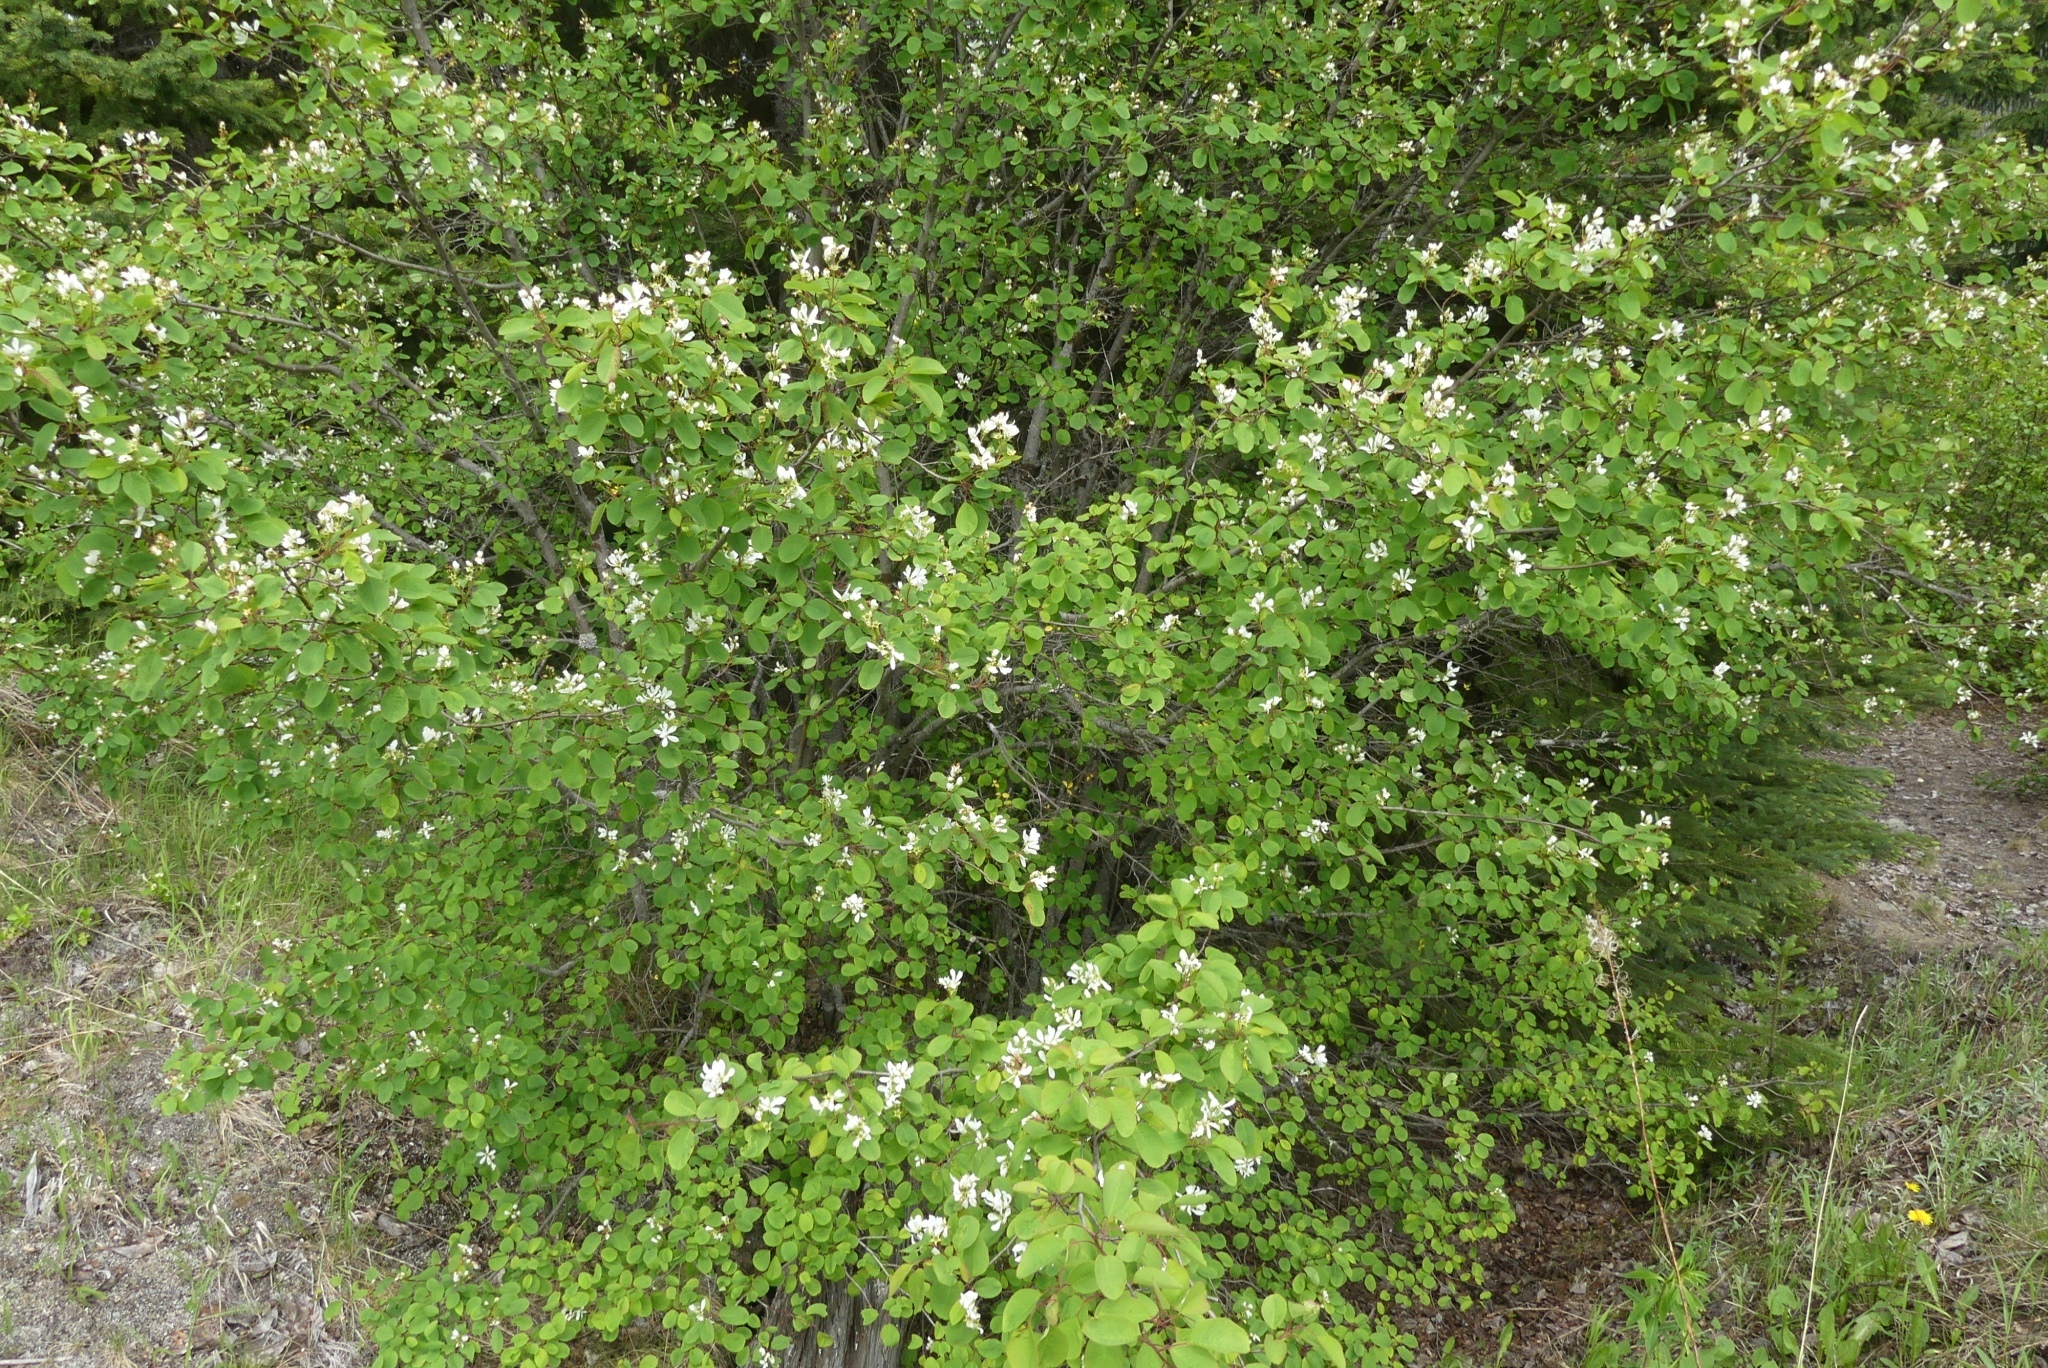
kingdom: Plantae
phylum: Tracheophyta
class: Magnoliopsida
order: Rosales
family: Rosaceae
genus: Amelanchier
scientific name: Amelanchier alnifolia
